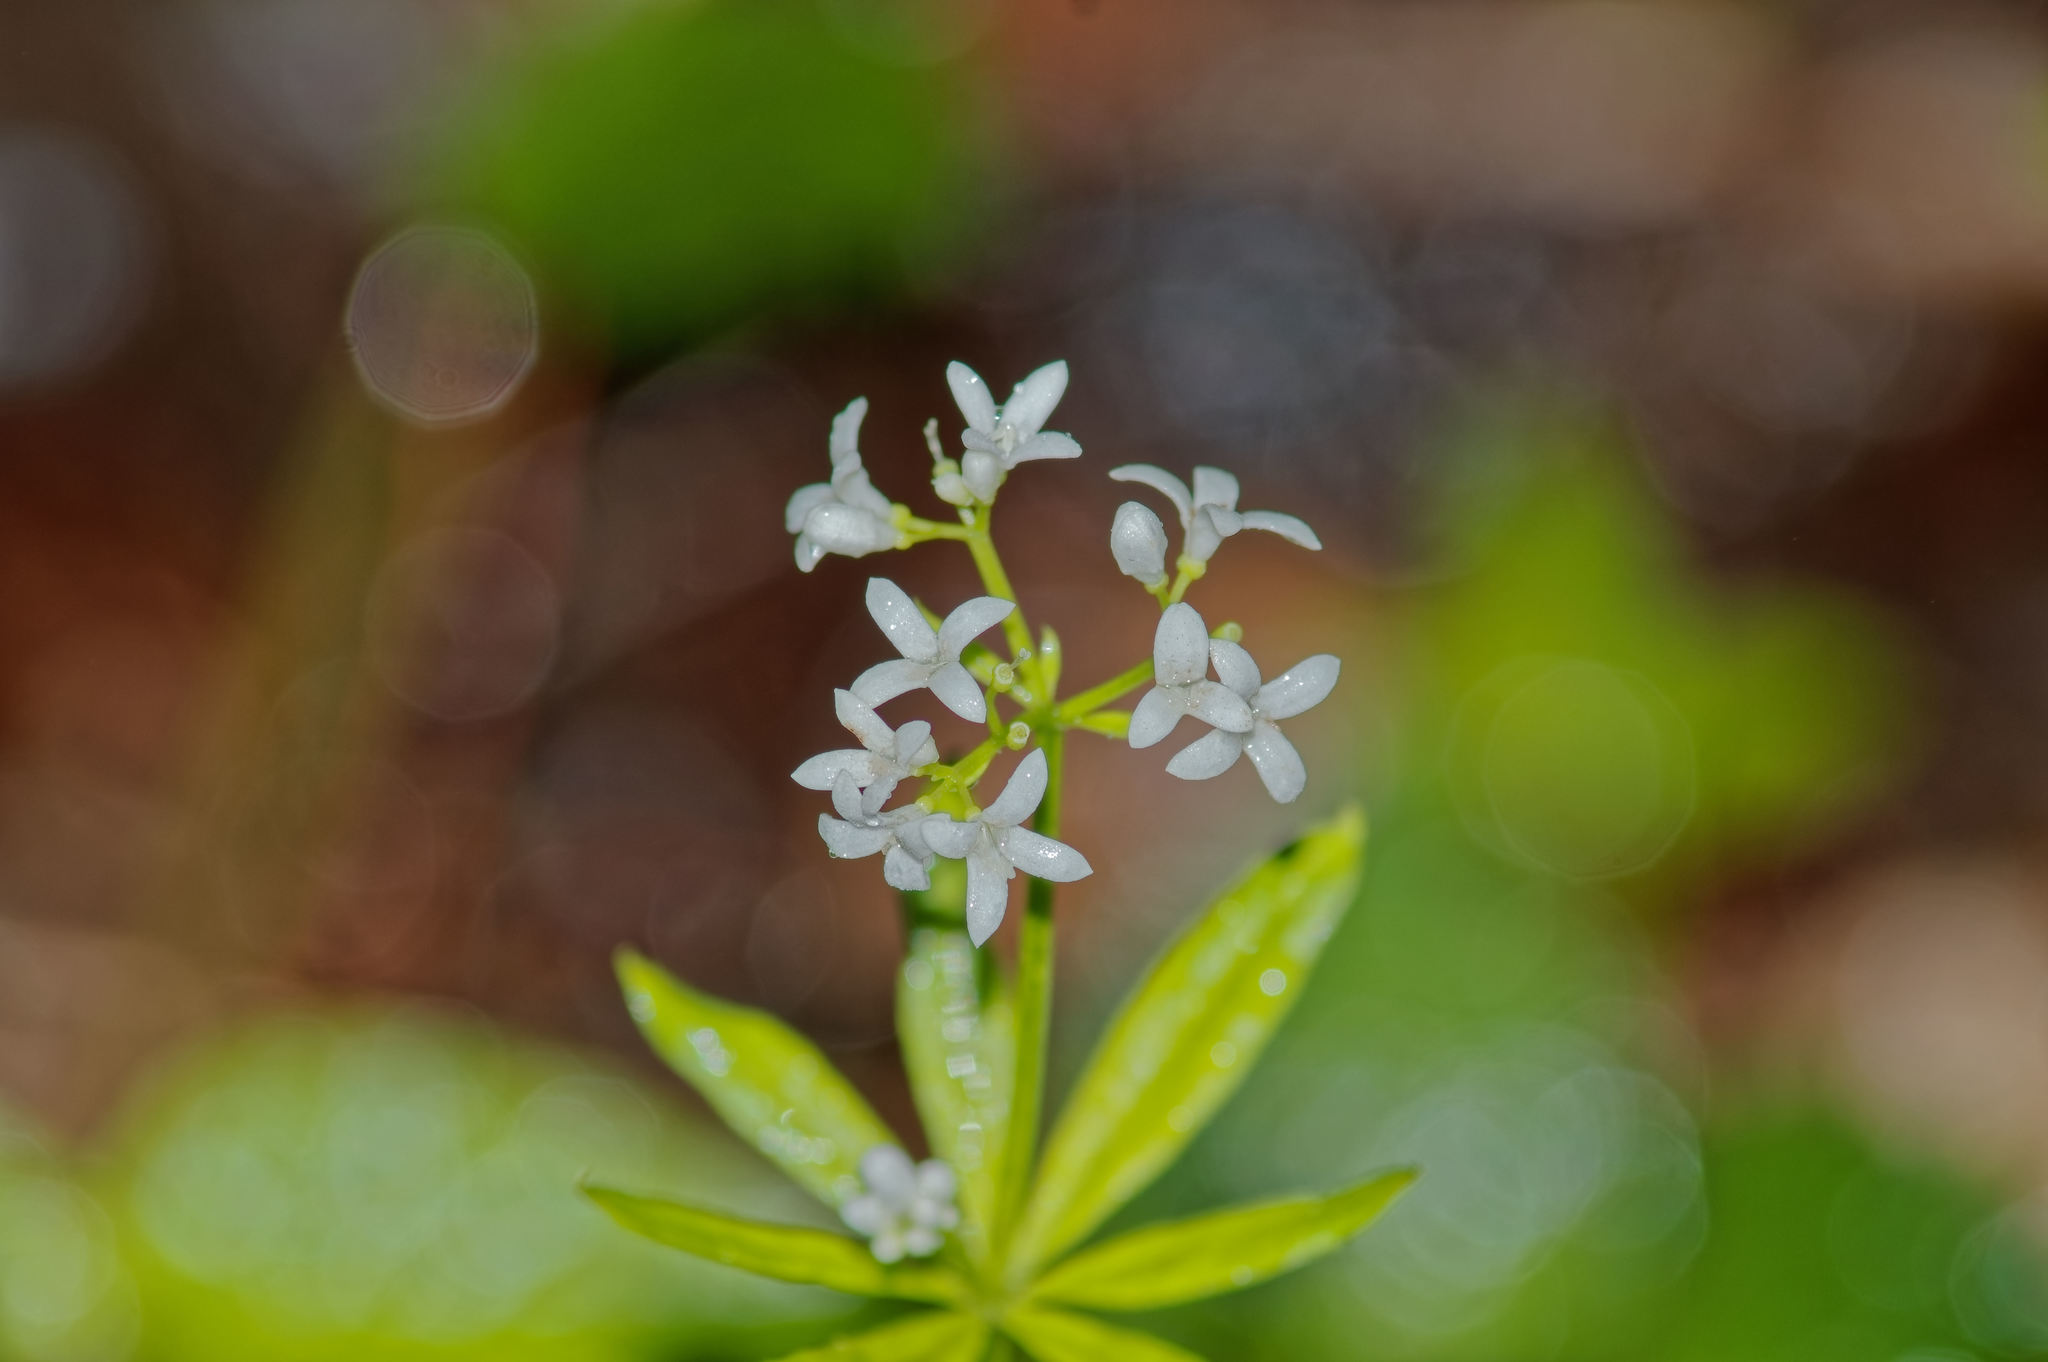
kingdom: Plantae
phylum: Tracheophyta
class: Magnoliopsida
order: Gentianales
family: Rubiaceae
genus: Galium
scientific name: Galium odoratum
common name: Sweet woodruff
